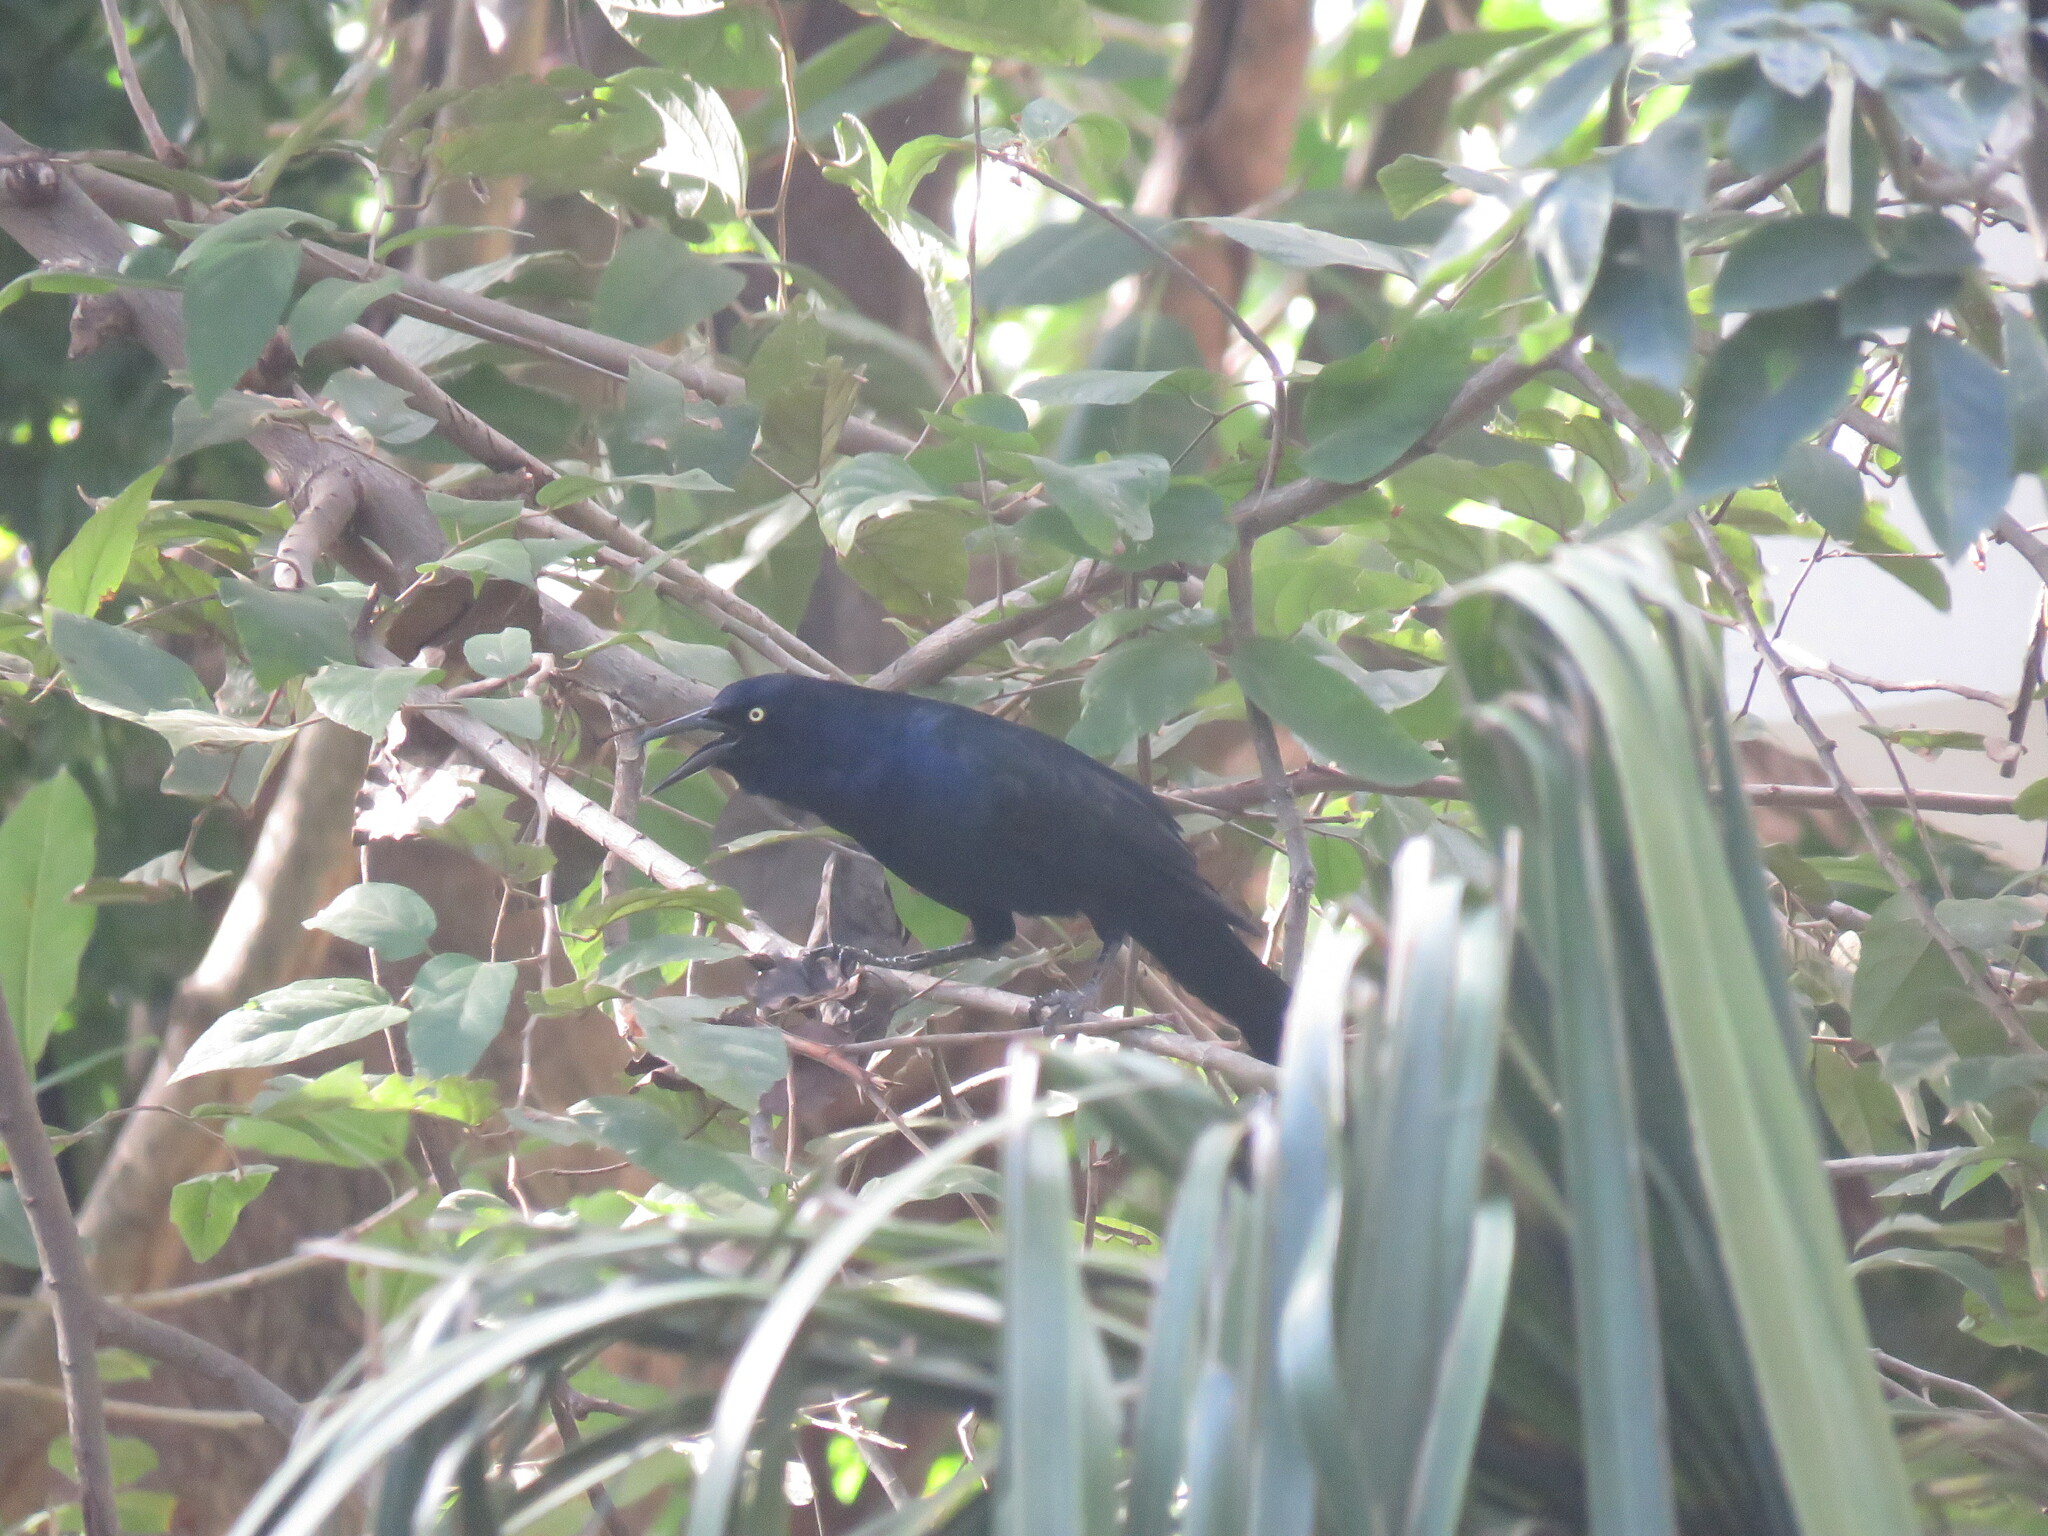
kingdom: Animalia
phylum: Chordata
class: Aves
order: Passeriformes
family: Icteridae
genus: Quiscalus
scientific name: Quiscalus mexicanus
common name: Great-tailed grackle
